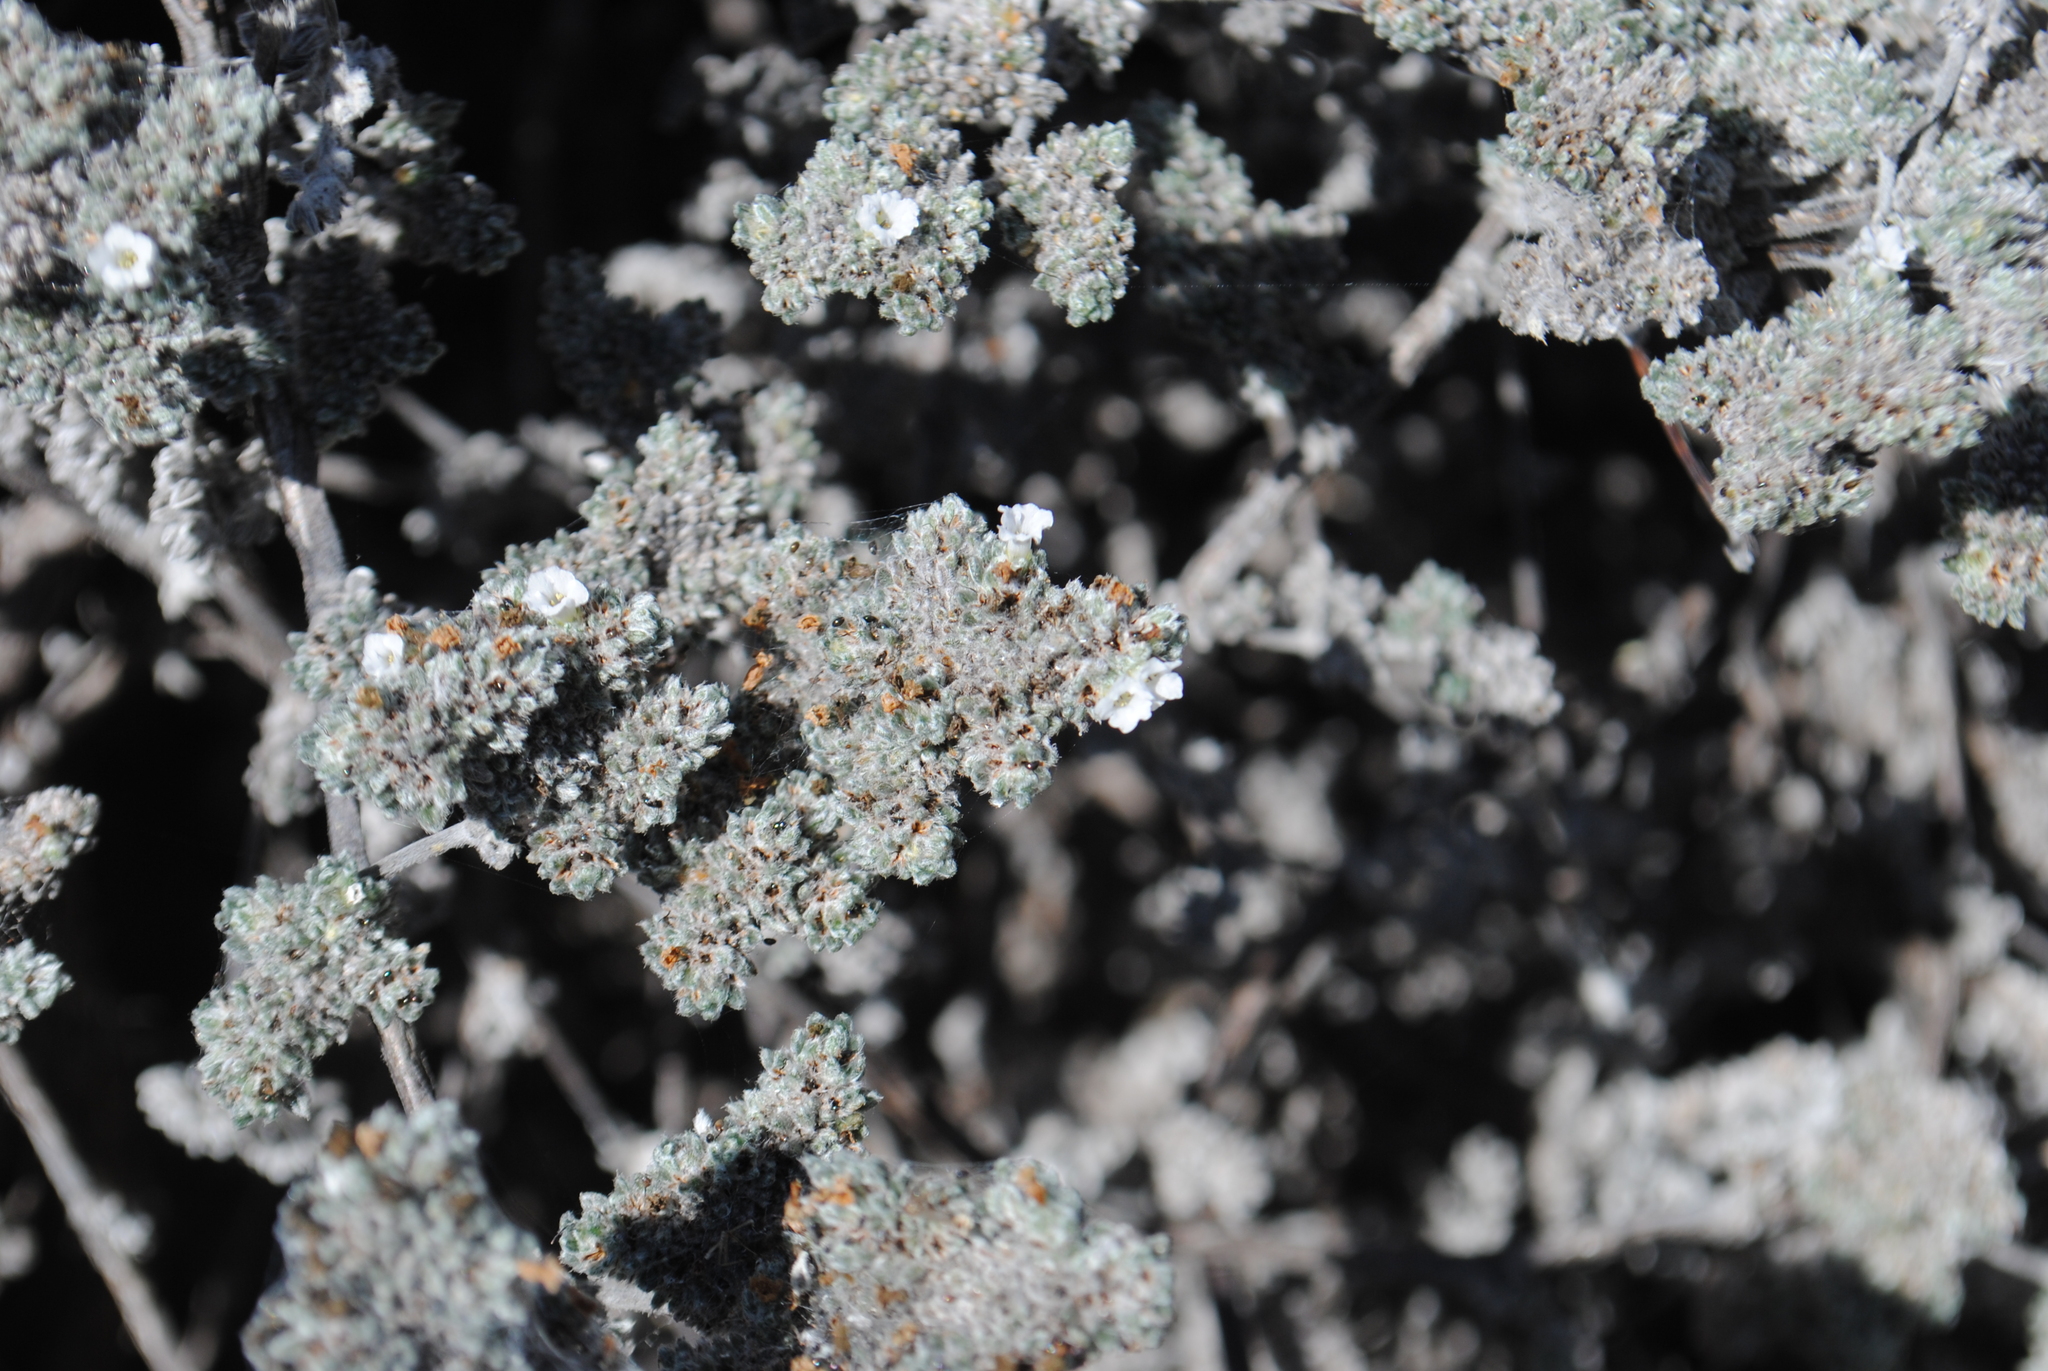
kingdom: Plantae
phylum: Tracheophyta
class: Magnoliopsida
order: Boraginales
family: Ehretiaceae
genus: Tiquilia
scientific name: Tiquilia nesiotica
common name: Gray matplant
